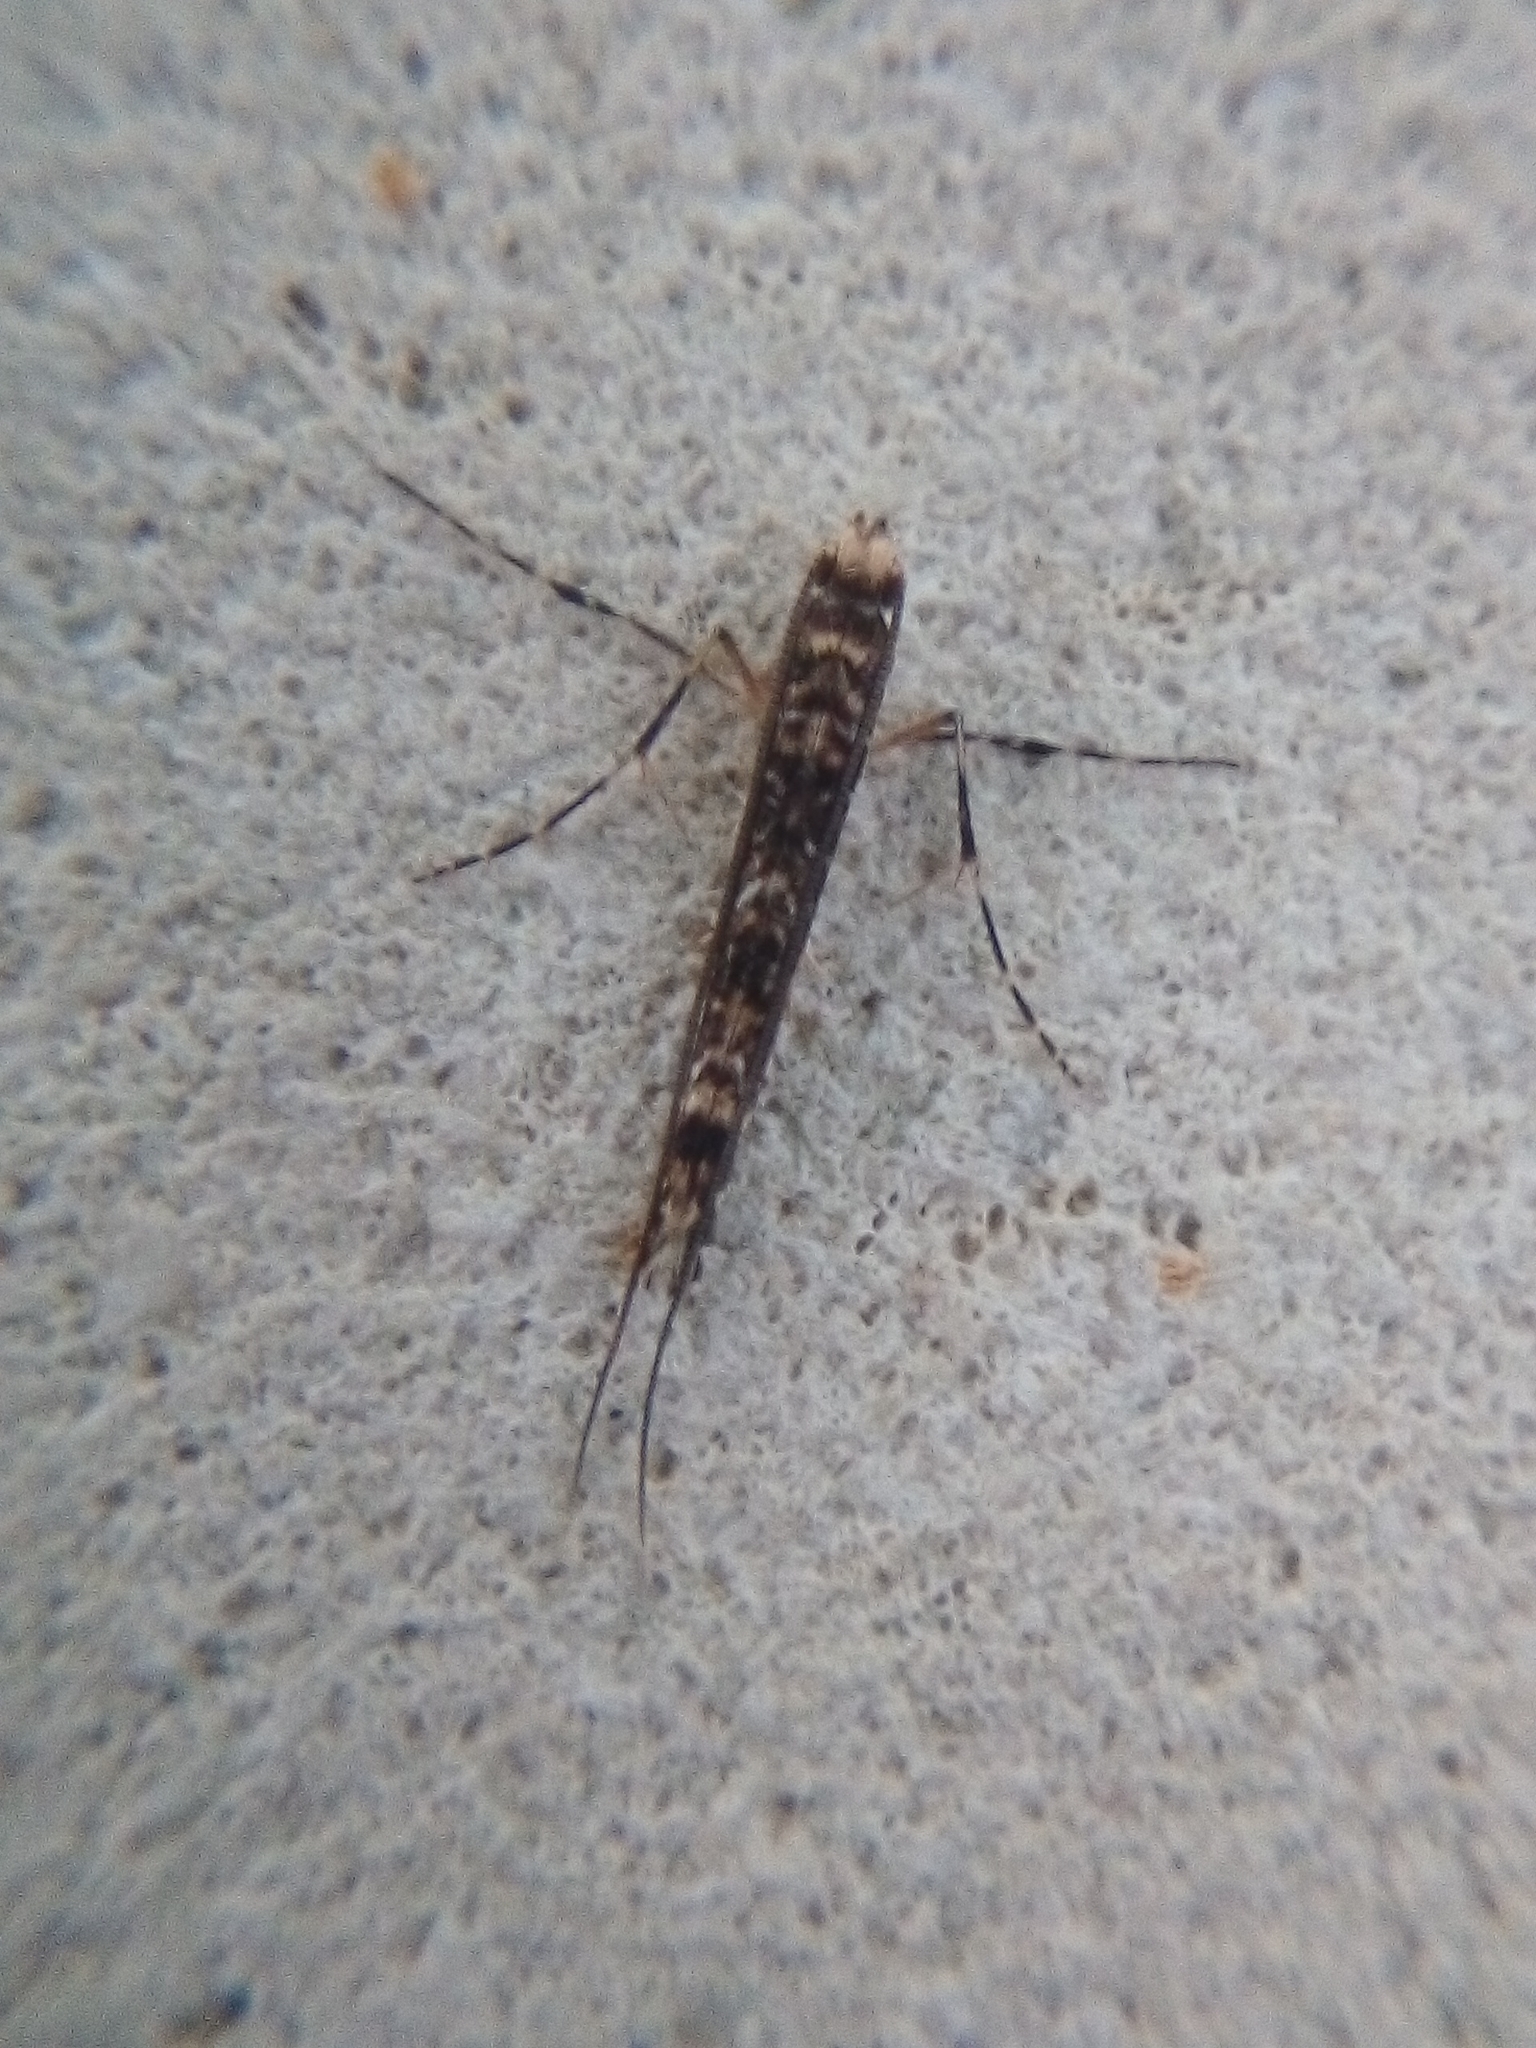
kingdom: Animalia
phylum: Arthropoda
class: Insecta
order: Lepidoptera
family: Gracillariidae
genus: Conopomorpha
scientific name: Conopomorpha cyanospila
